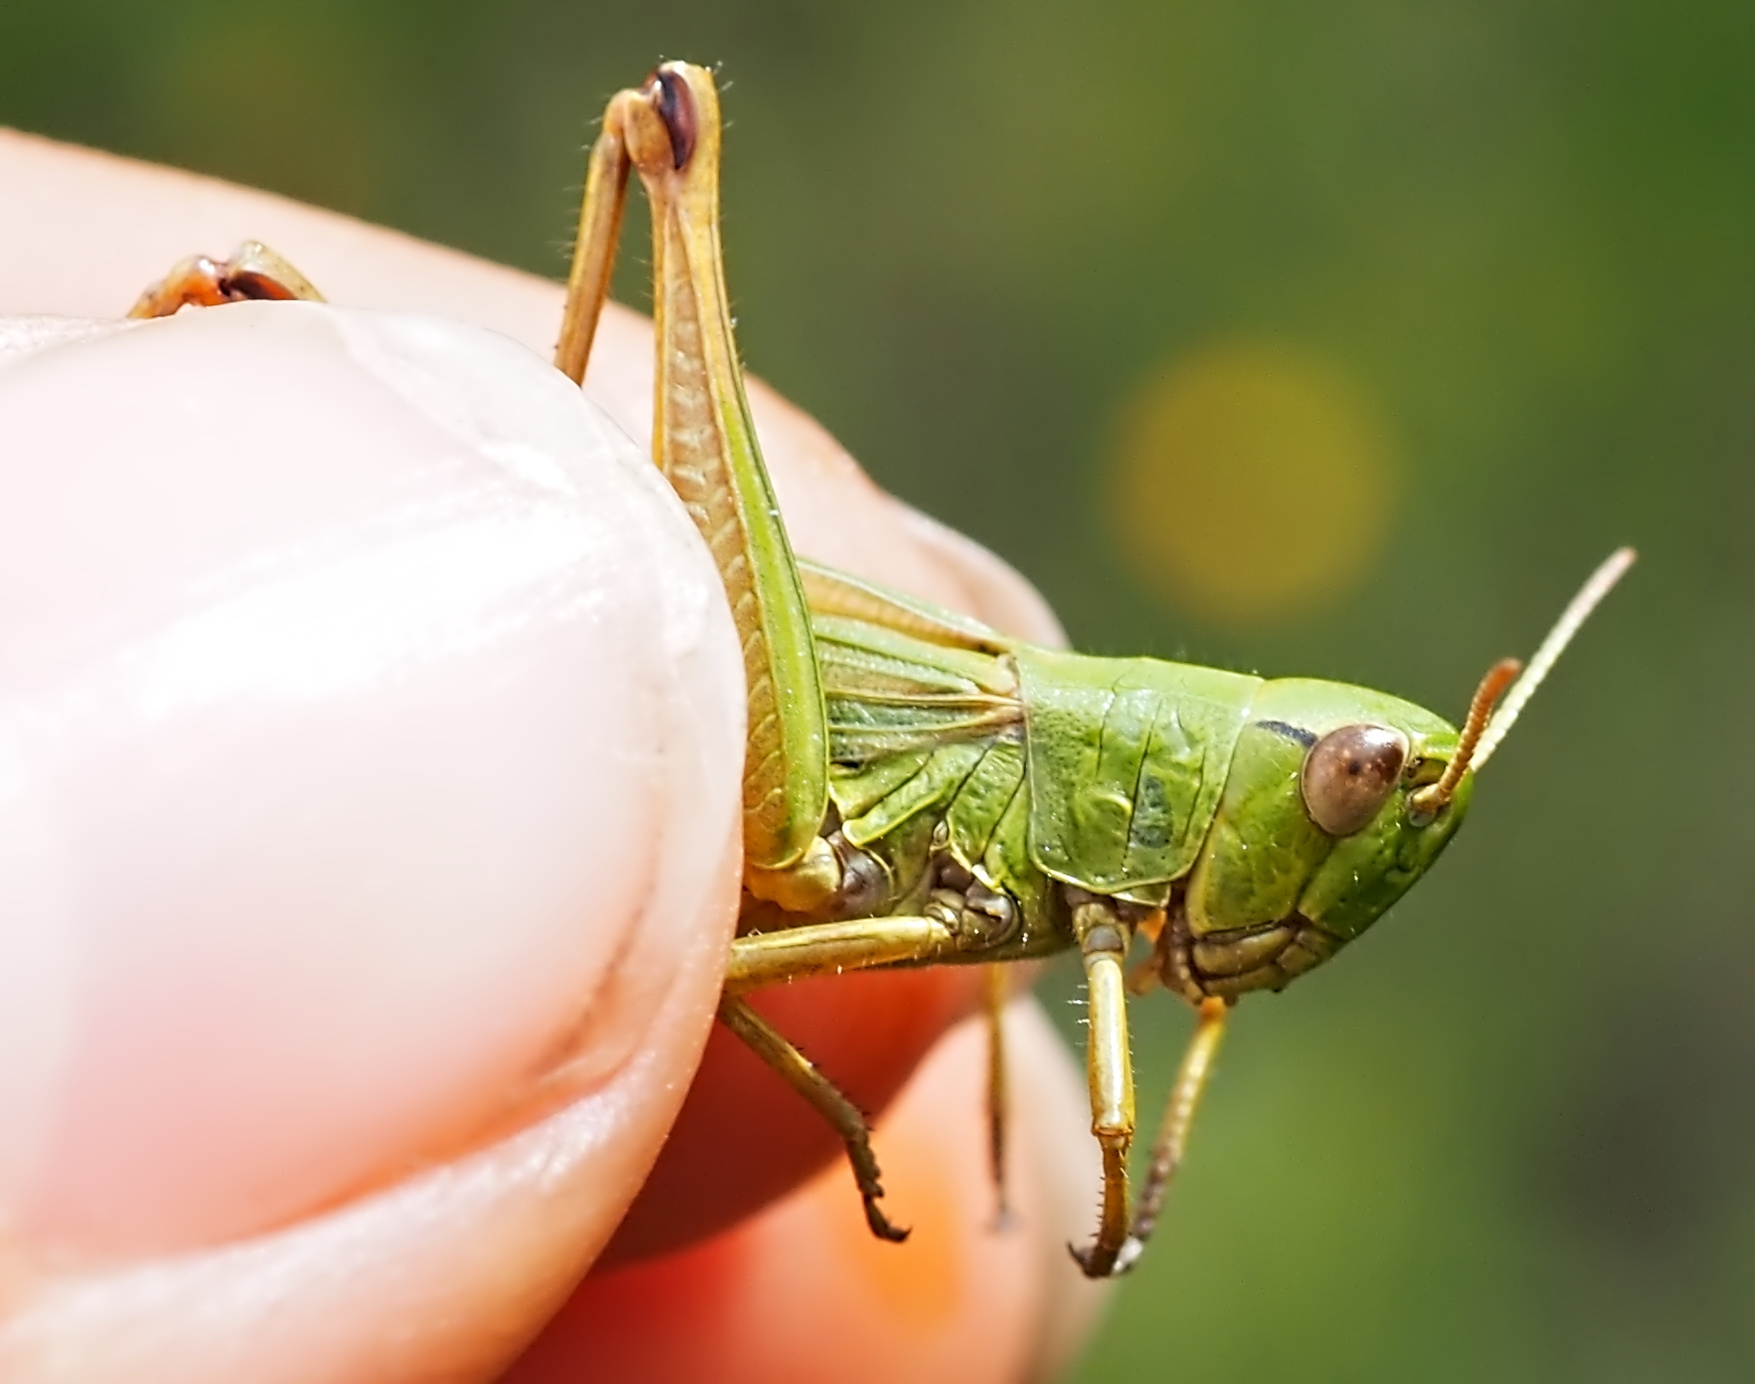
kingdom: Animalia
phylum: Arthropoda
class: Insecta
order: Orthoptera
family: Acrididae
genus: Pseudochorthippus
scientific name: Pseudochorthippus parallelus
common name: Meadow grasshopper
